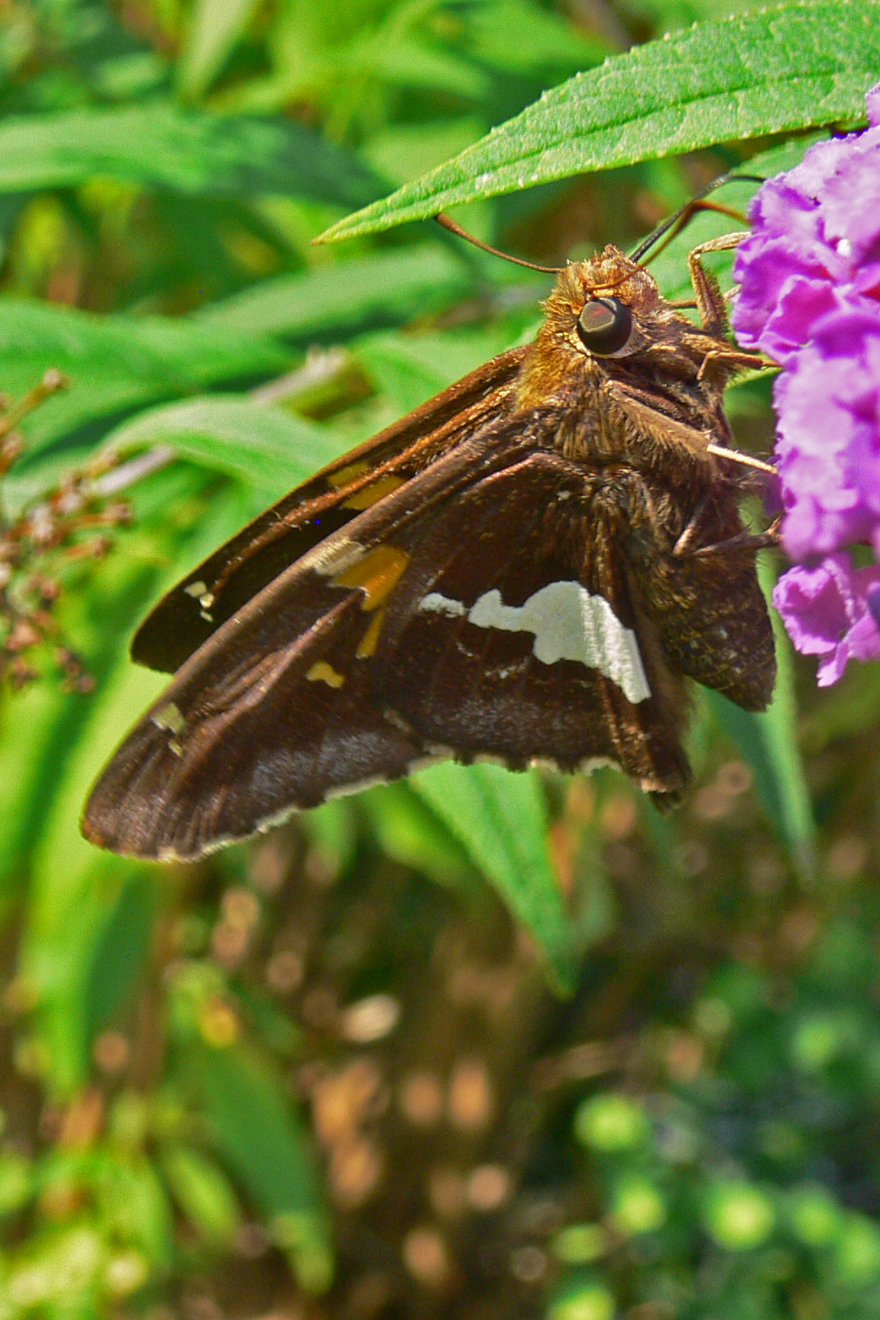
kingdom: Animalia
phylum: Arthropoda
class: Insecta
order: Lepidoptera
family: Hesperiidae
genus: Epargyreus
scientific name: Epargyreus clarus
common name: Silver-spotted skipper
